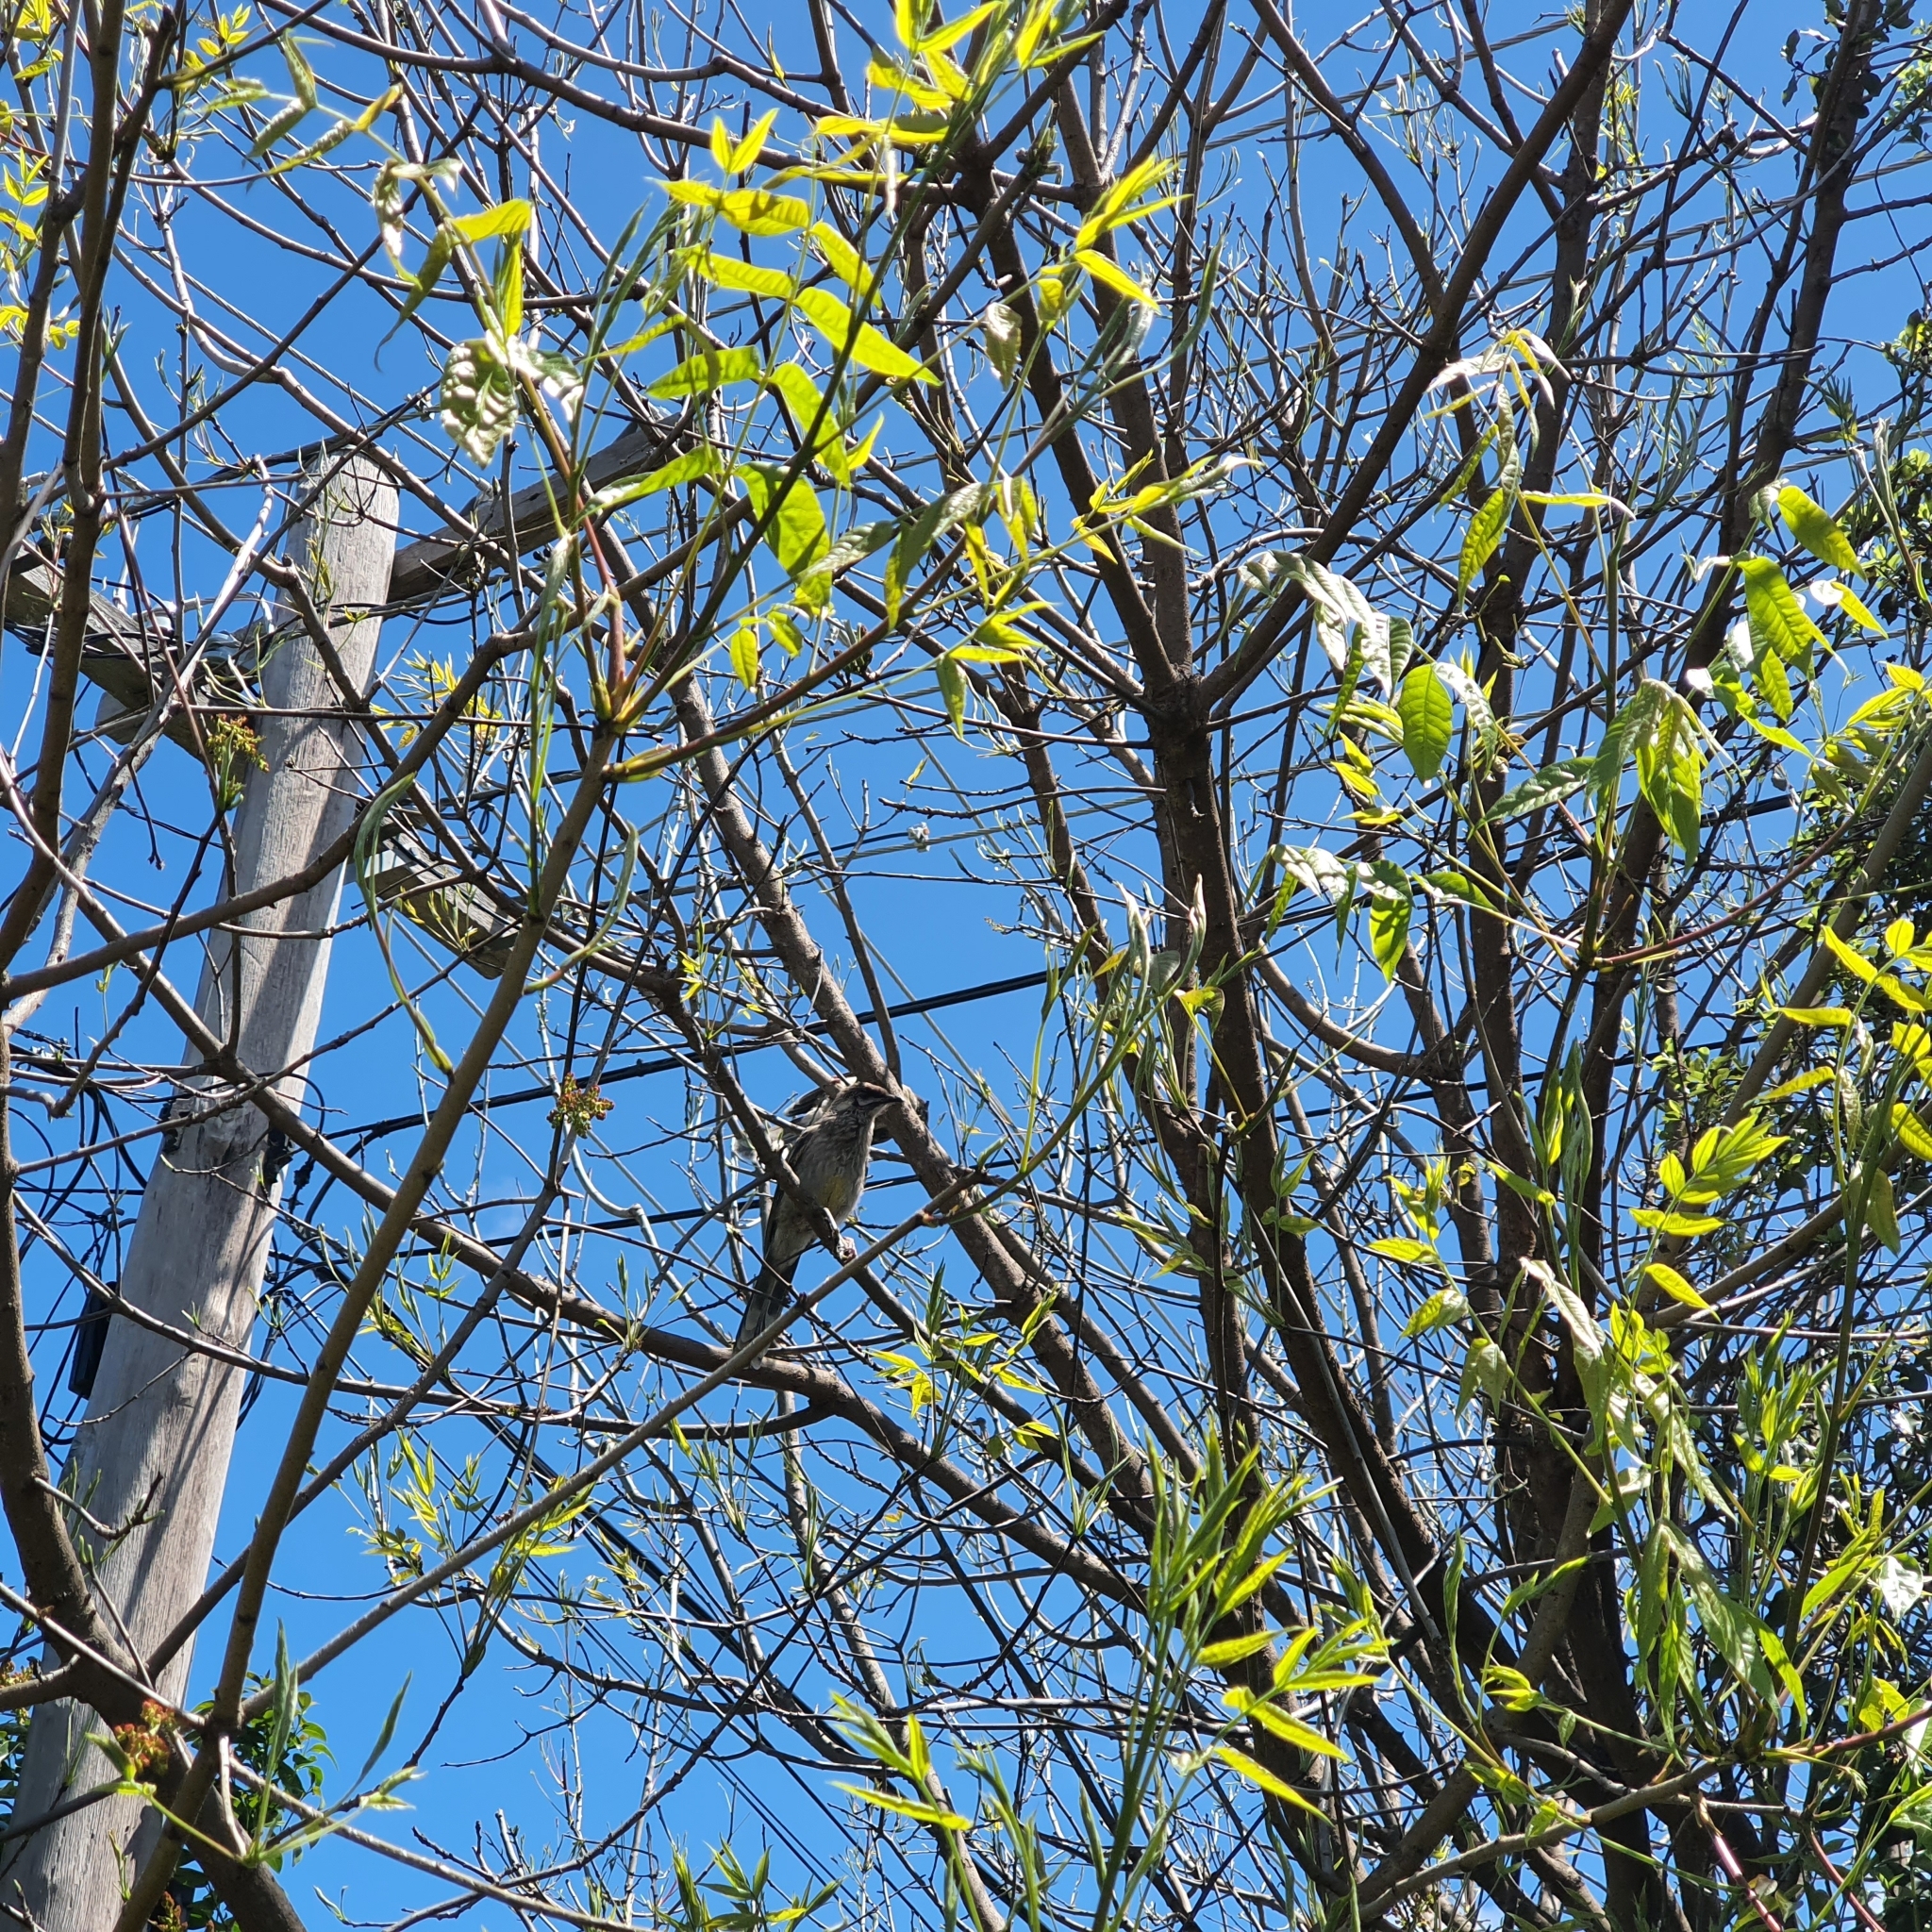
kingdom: Animalia
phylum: Chordata
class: Aves
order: Passeriformes
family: Meliphagidae
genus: Anthochaera
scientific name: Anthochaera carunculata
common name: Red wattlebird
